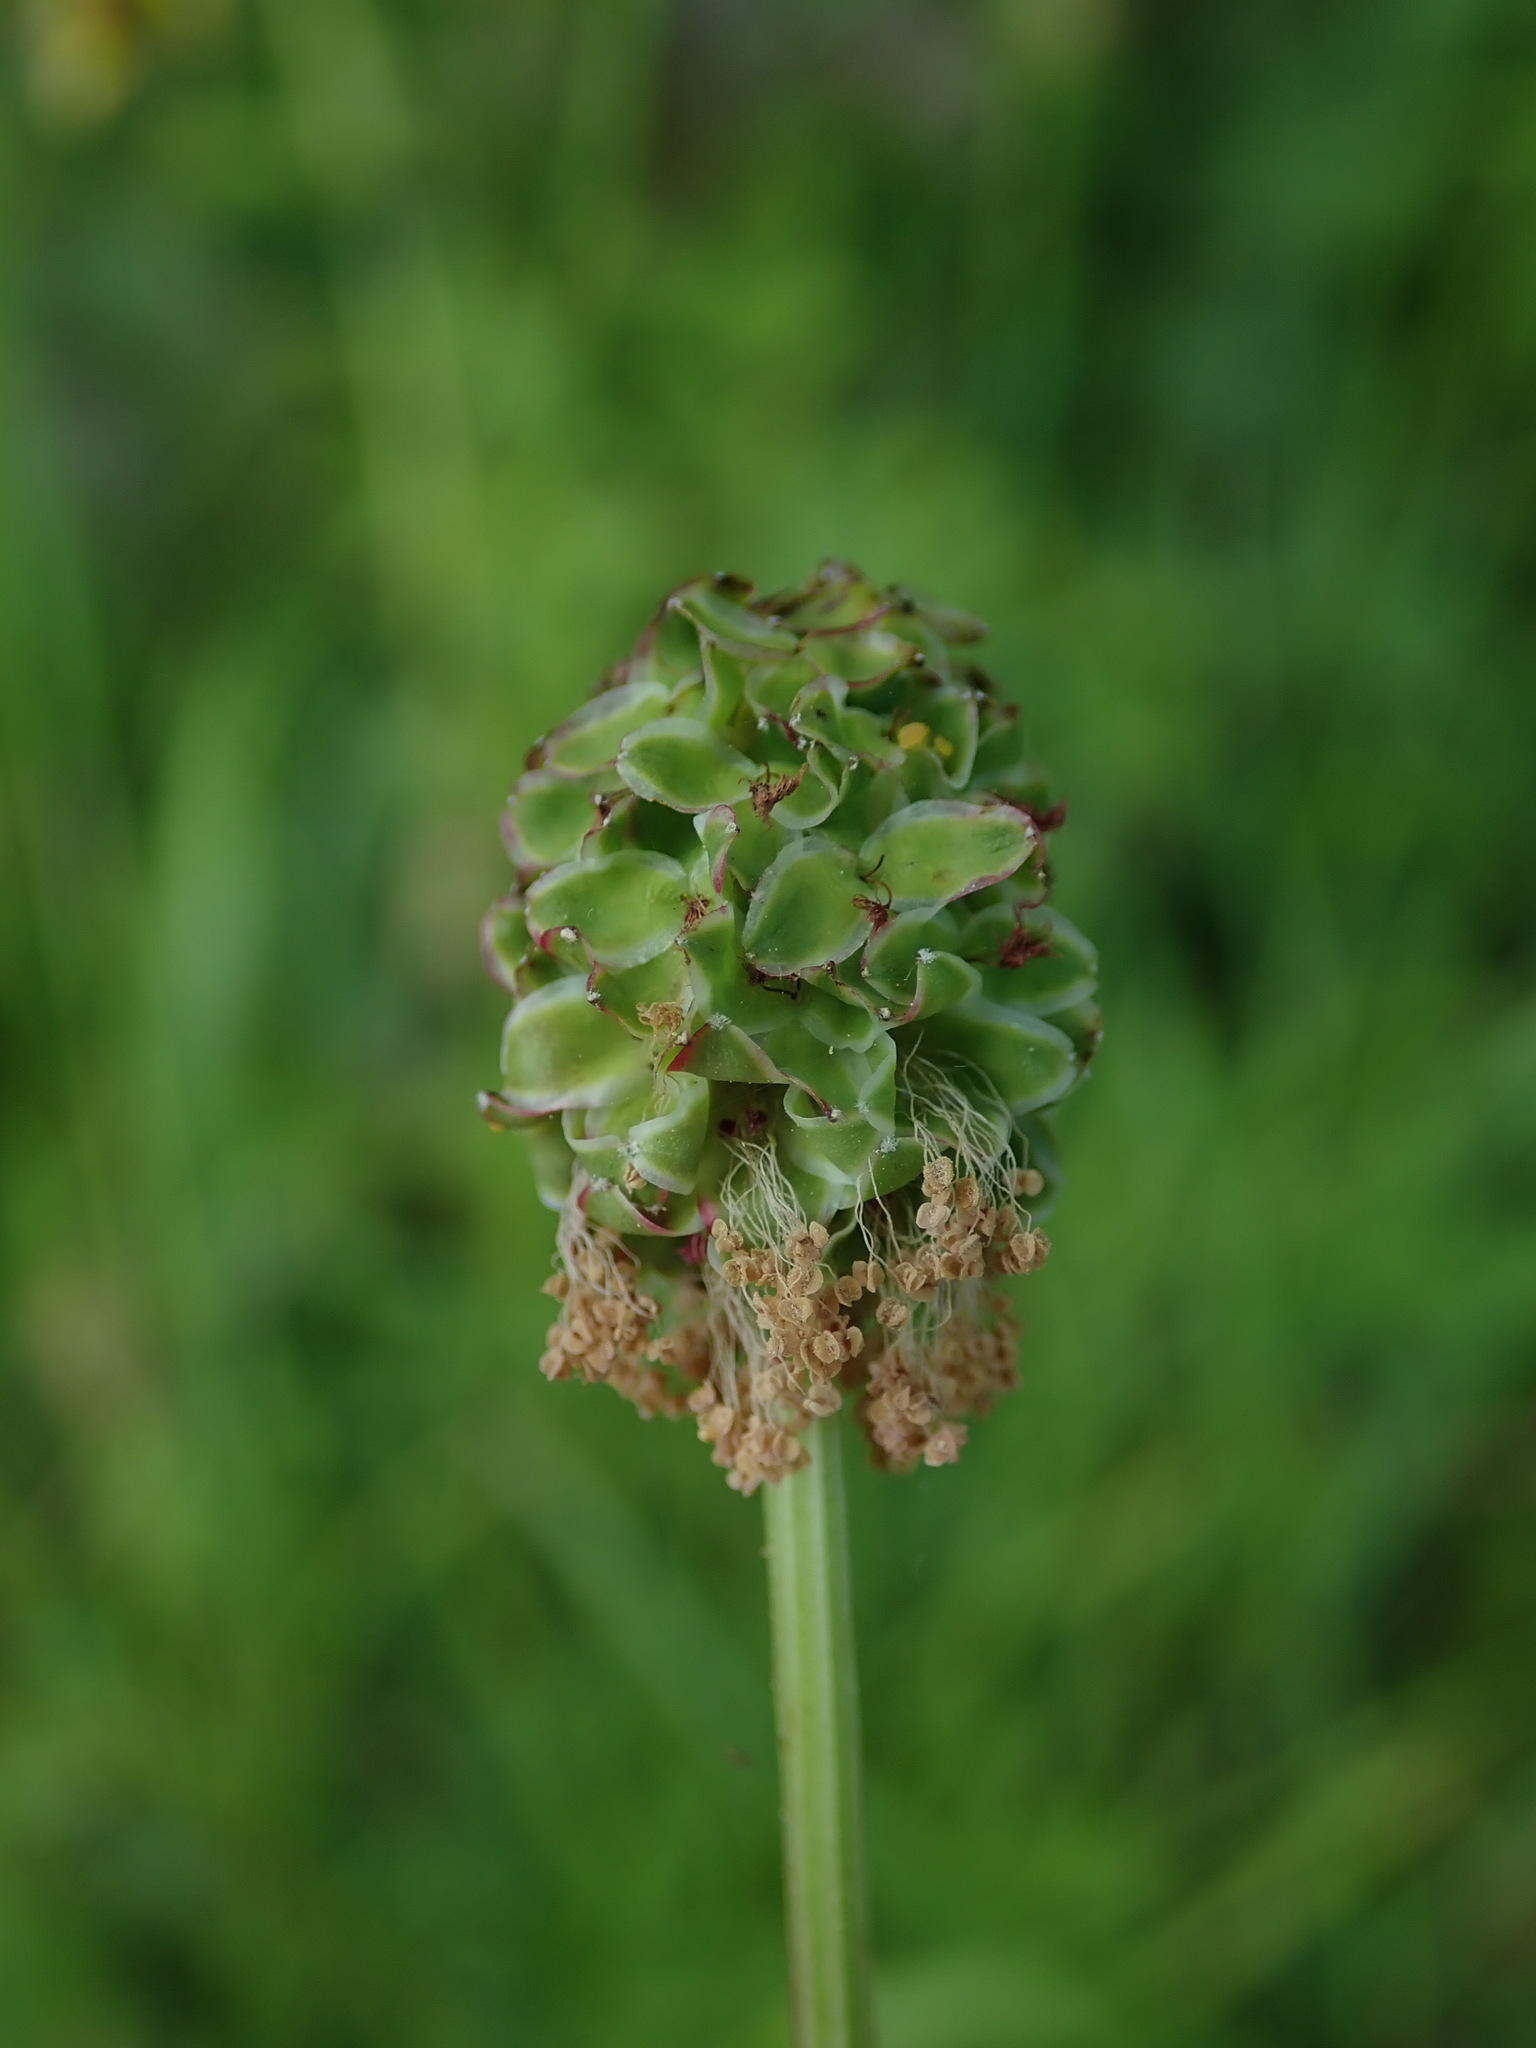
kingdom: Plantae
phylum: Tracheophyta
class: Magnoliopsida
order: Rosales
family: Rosaceae
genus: Poterium
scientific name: Poterium sanguisorba
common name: Salad burnet
